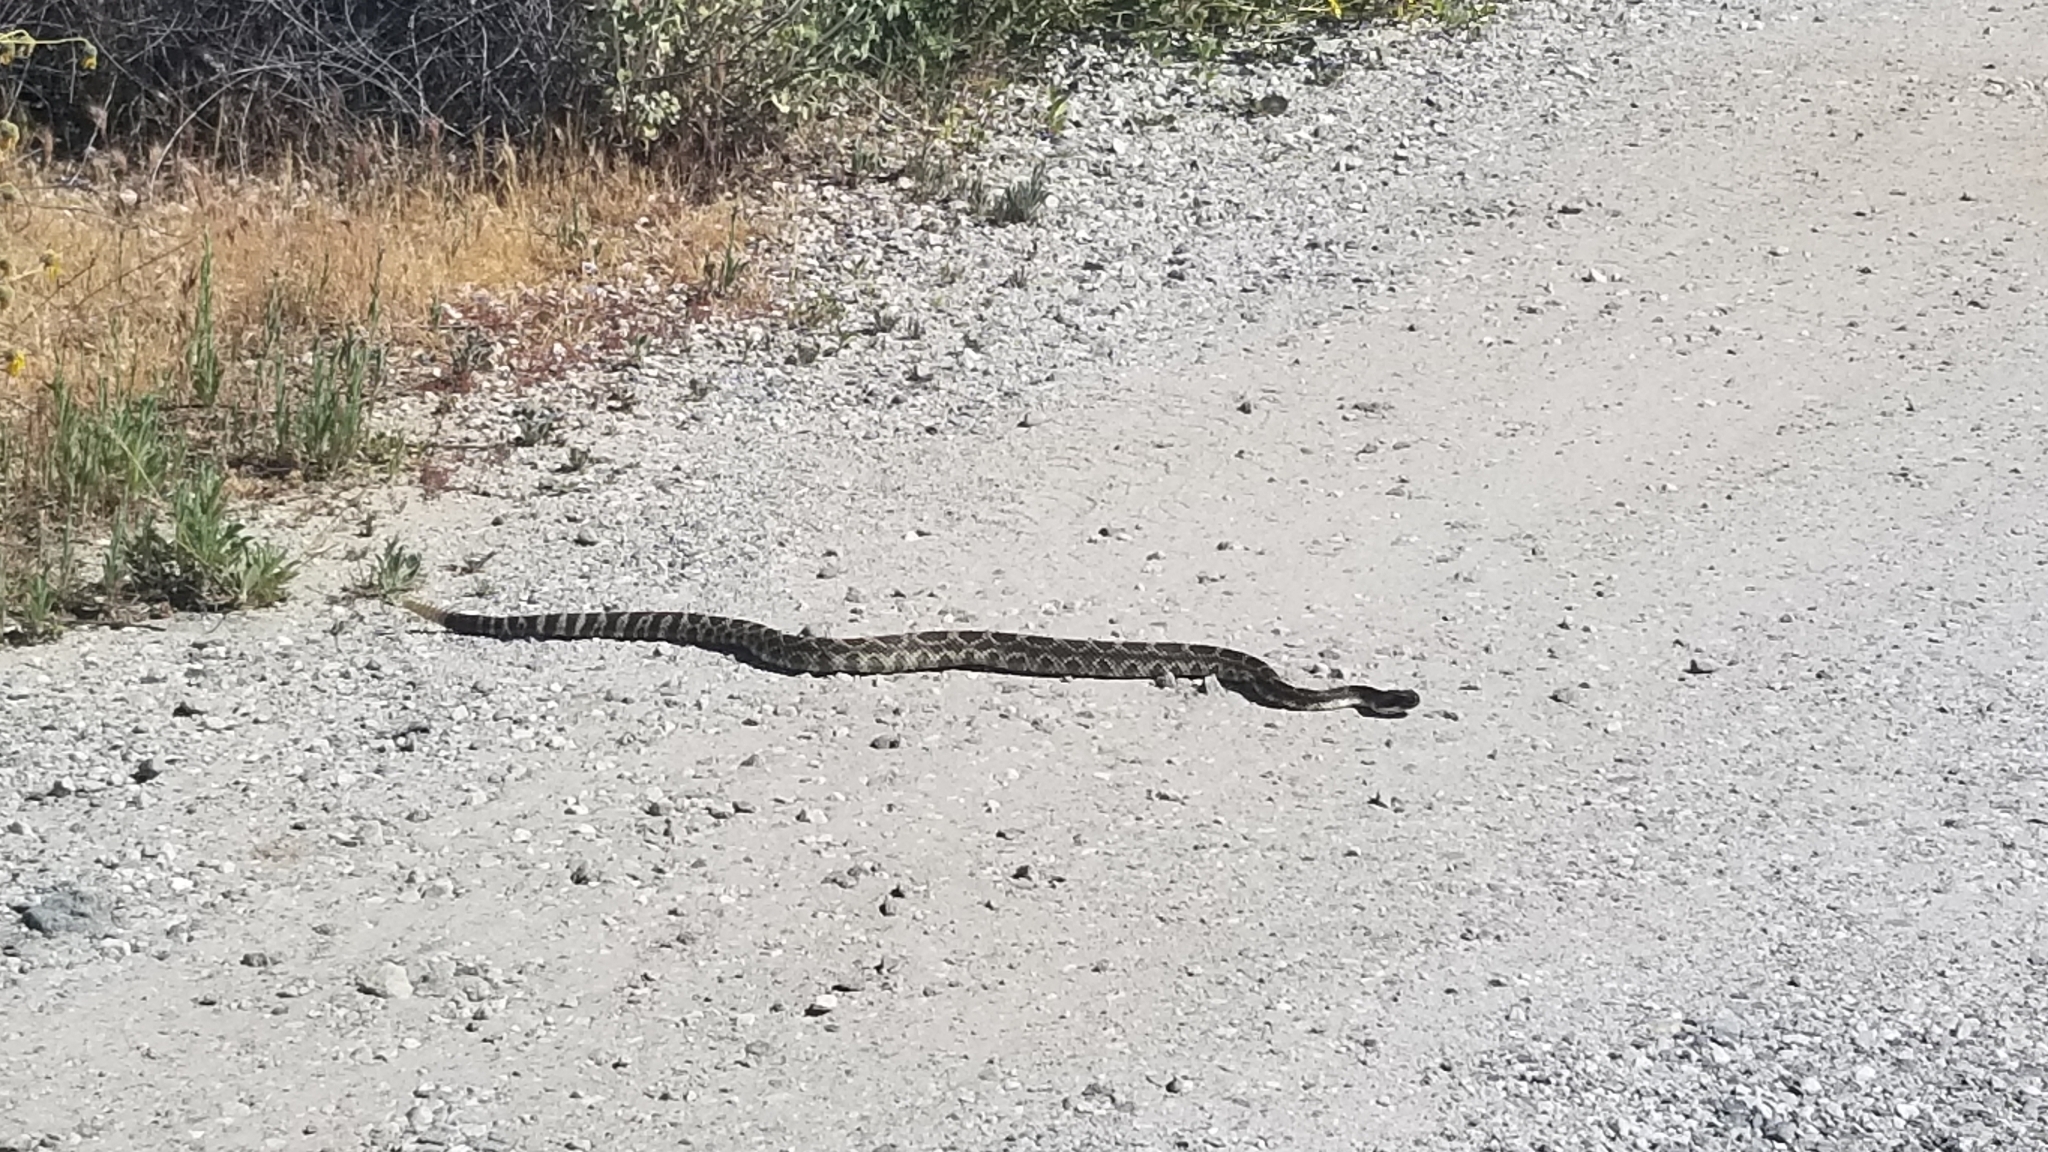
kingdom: Animalia
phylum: Chordata
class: Squamata
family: Viperidae
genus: Crotalus
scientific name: Crotalus oreganus
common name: Abyssus
